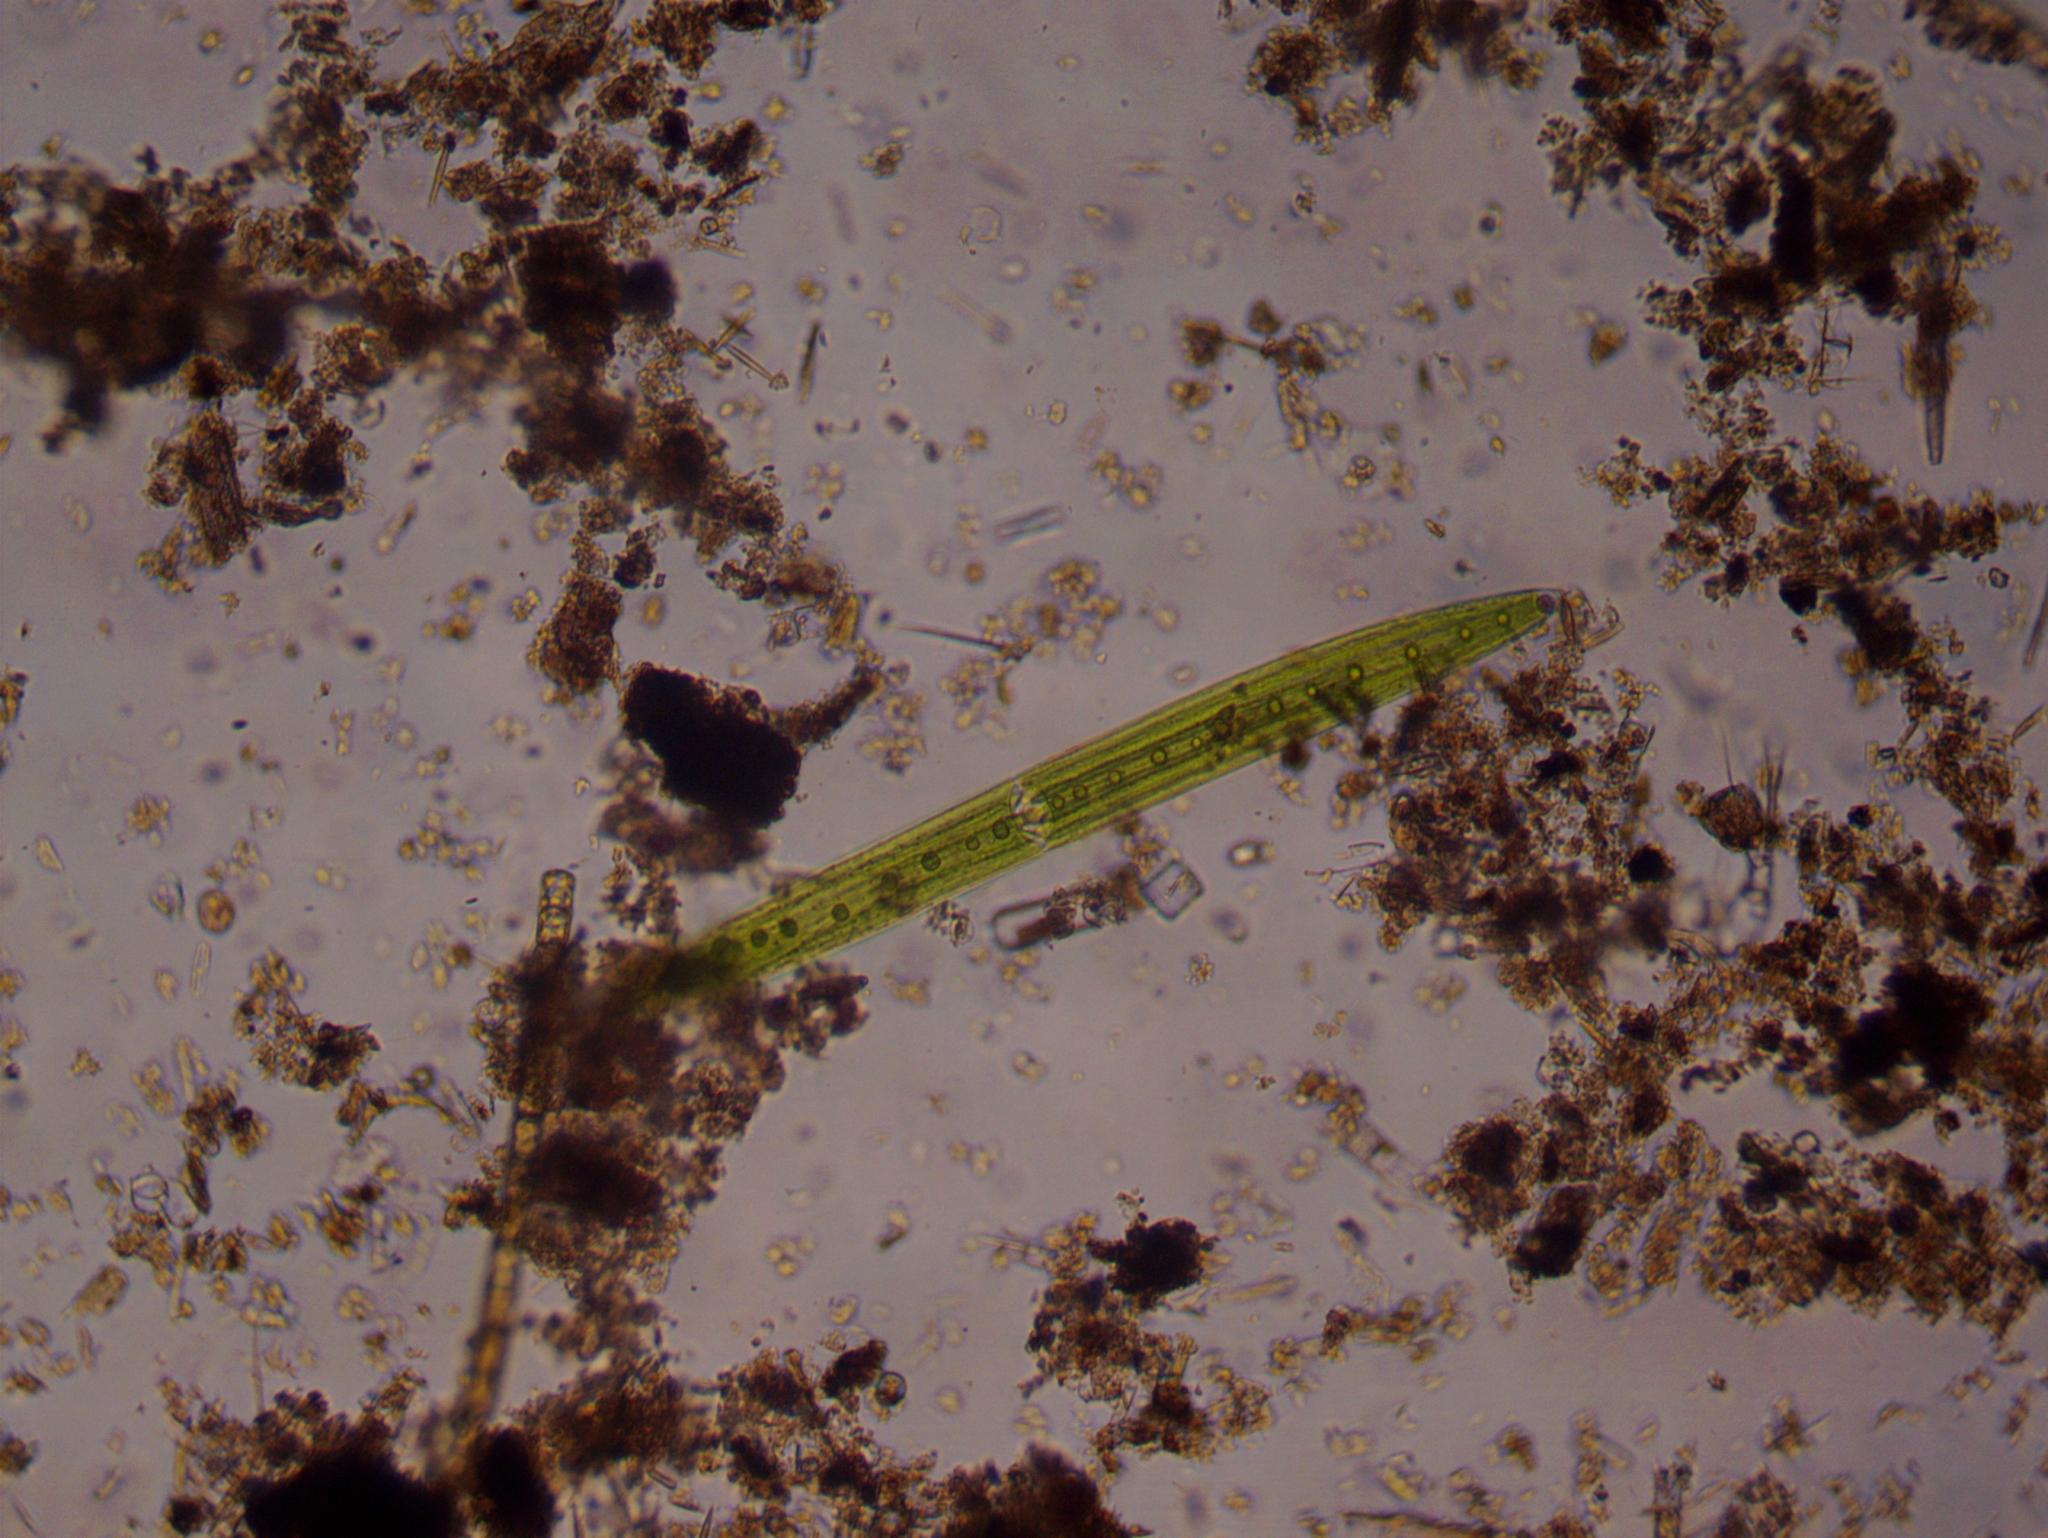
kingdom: Plantae
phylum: Charophyta
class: Zygnematophyceae
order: Zygnematales
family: Closteriaceae
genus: Closterium
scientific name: Closterium acerosum
